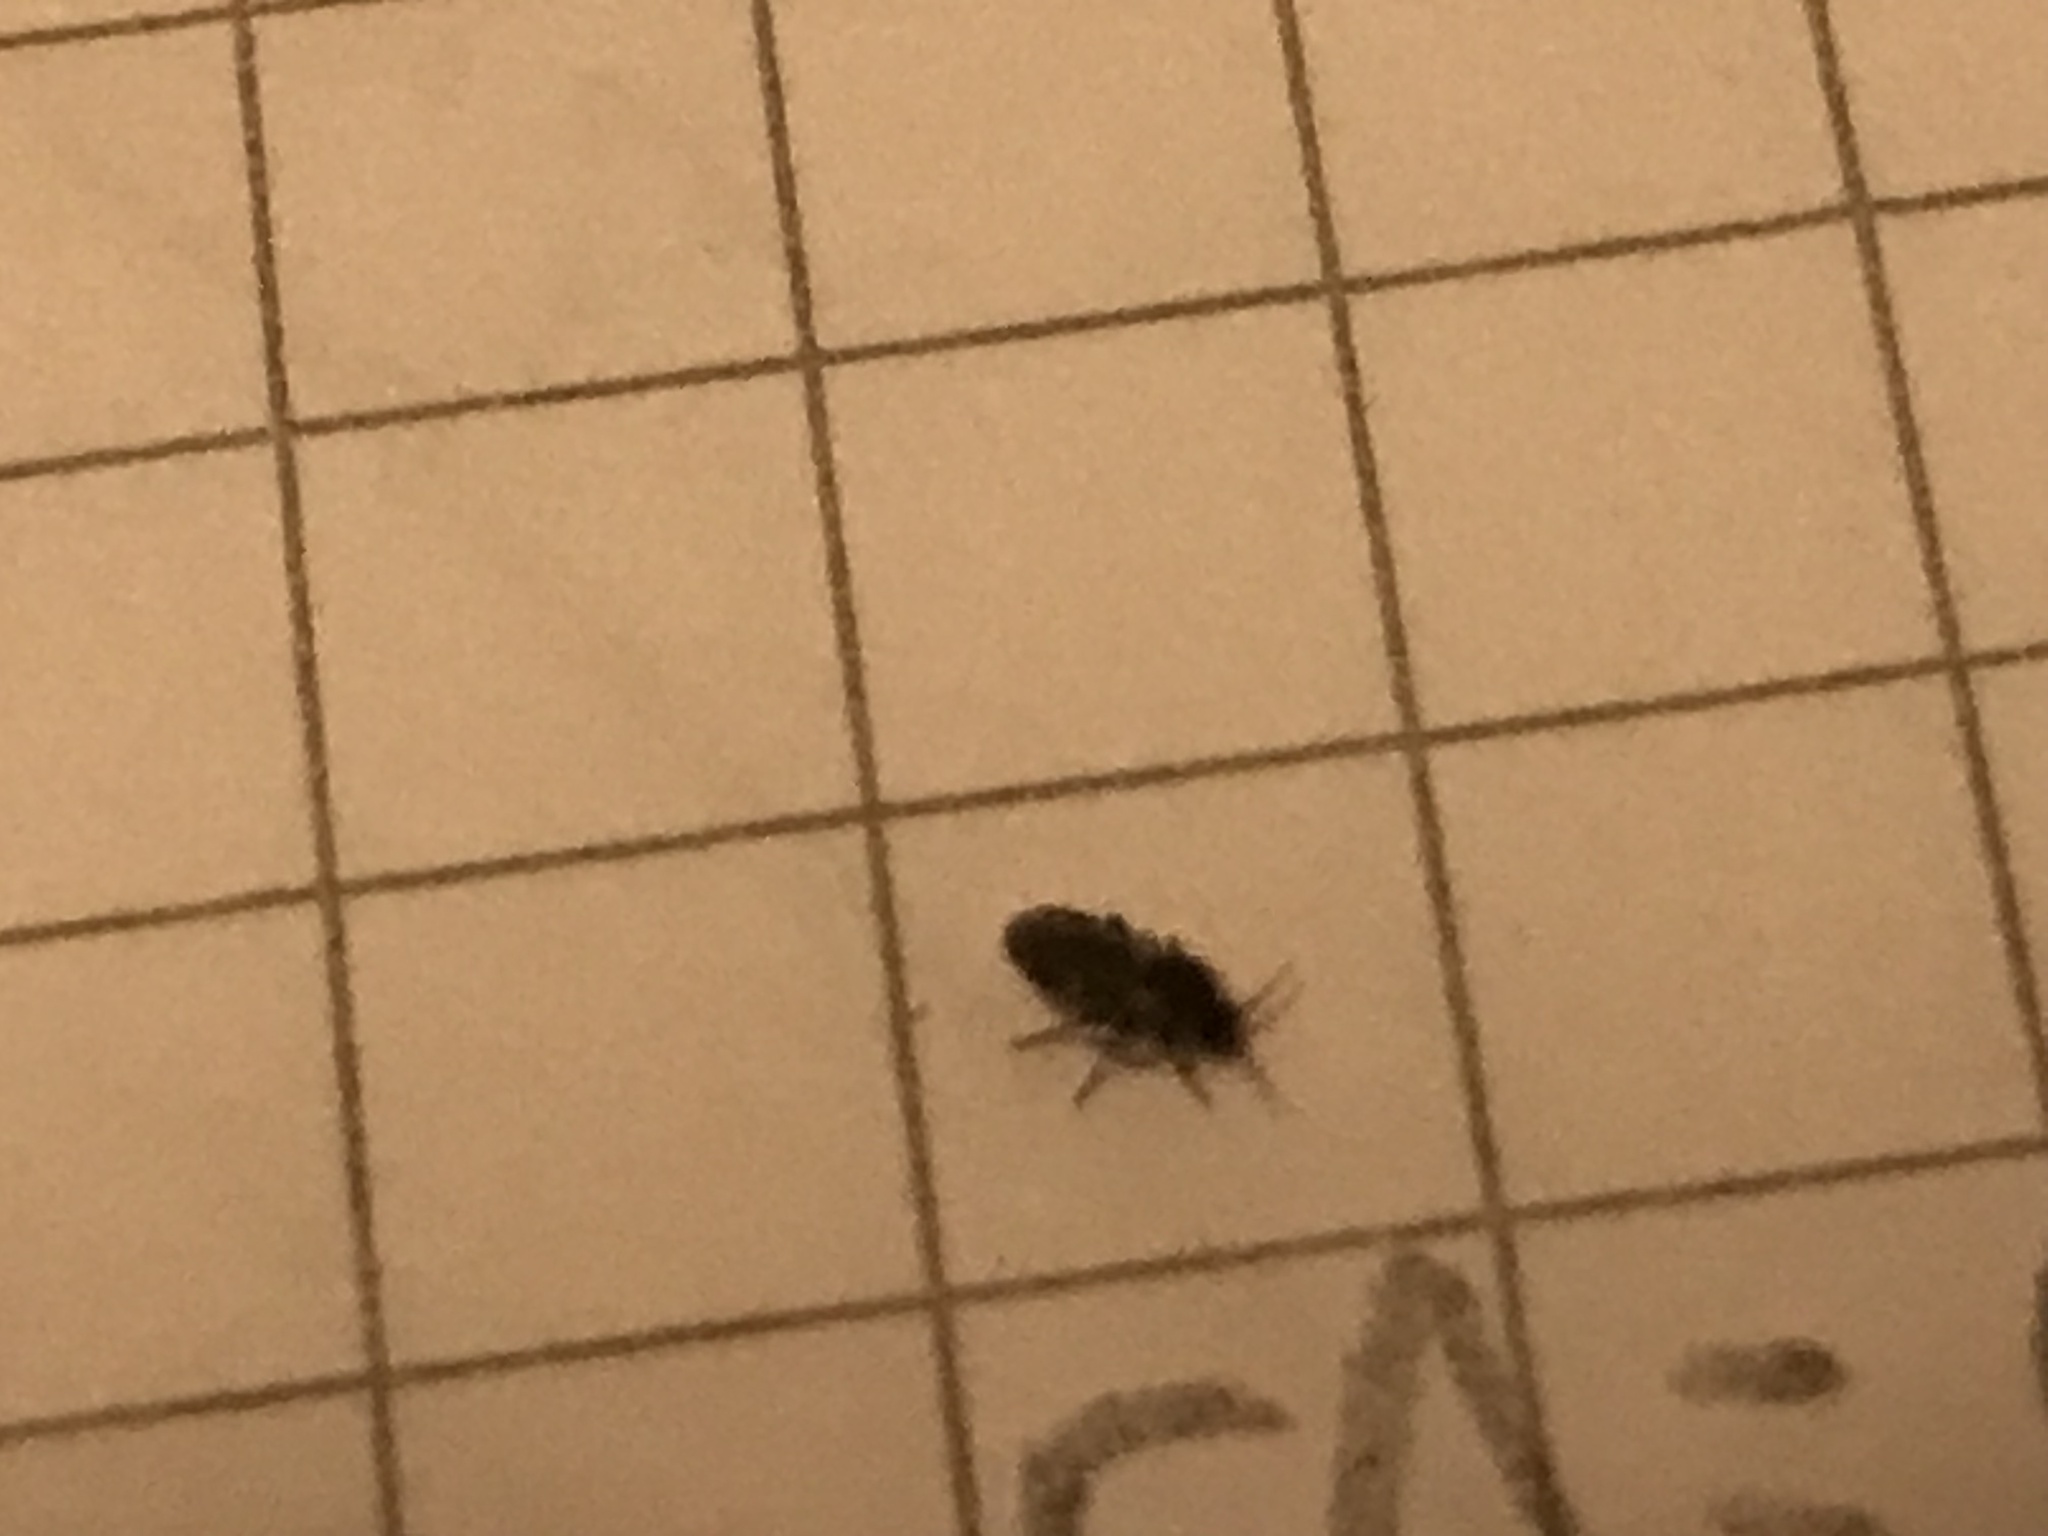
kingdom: Animalia
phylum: Arthropoda
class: Insecta
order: Hemiptera
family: Lygaeidae
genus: Arocatus
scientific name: Arocatus melanocephalus
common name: Lygaeid bug
